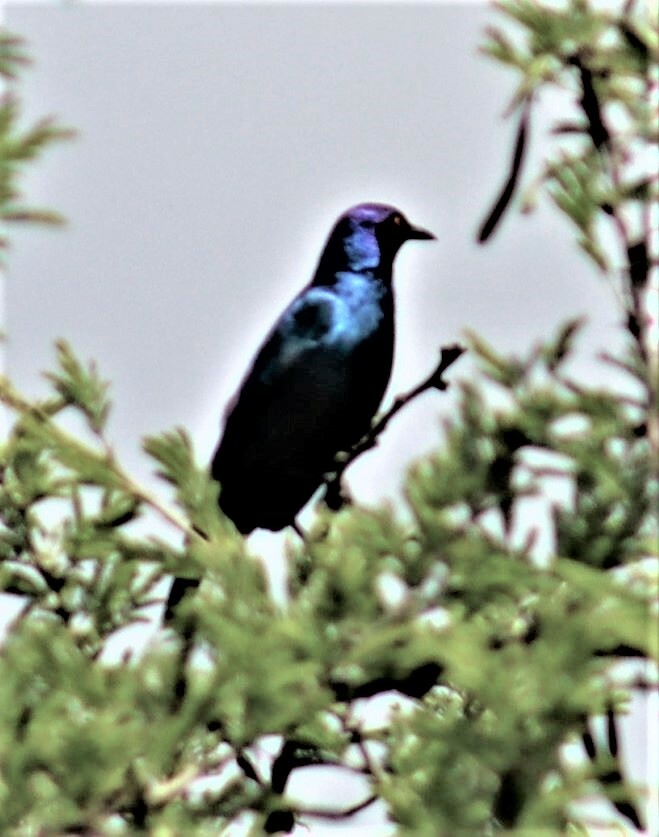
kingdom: Animalia
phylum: Chordata
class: Aves
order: Passeriformes
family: Sturnidae
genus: Lamprotornis
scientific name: Lamprotornis nitens
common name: Cape starling
